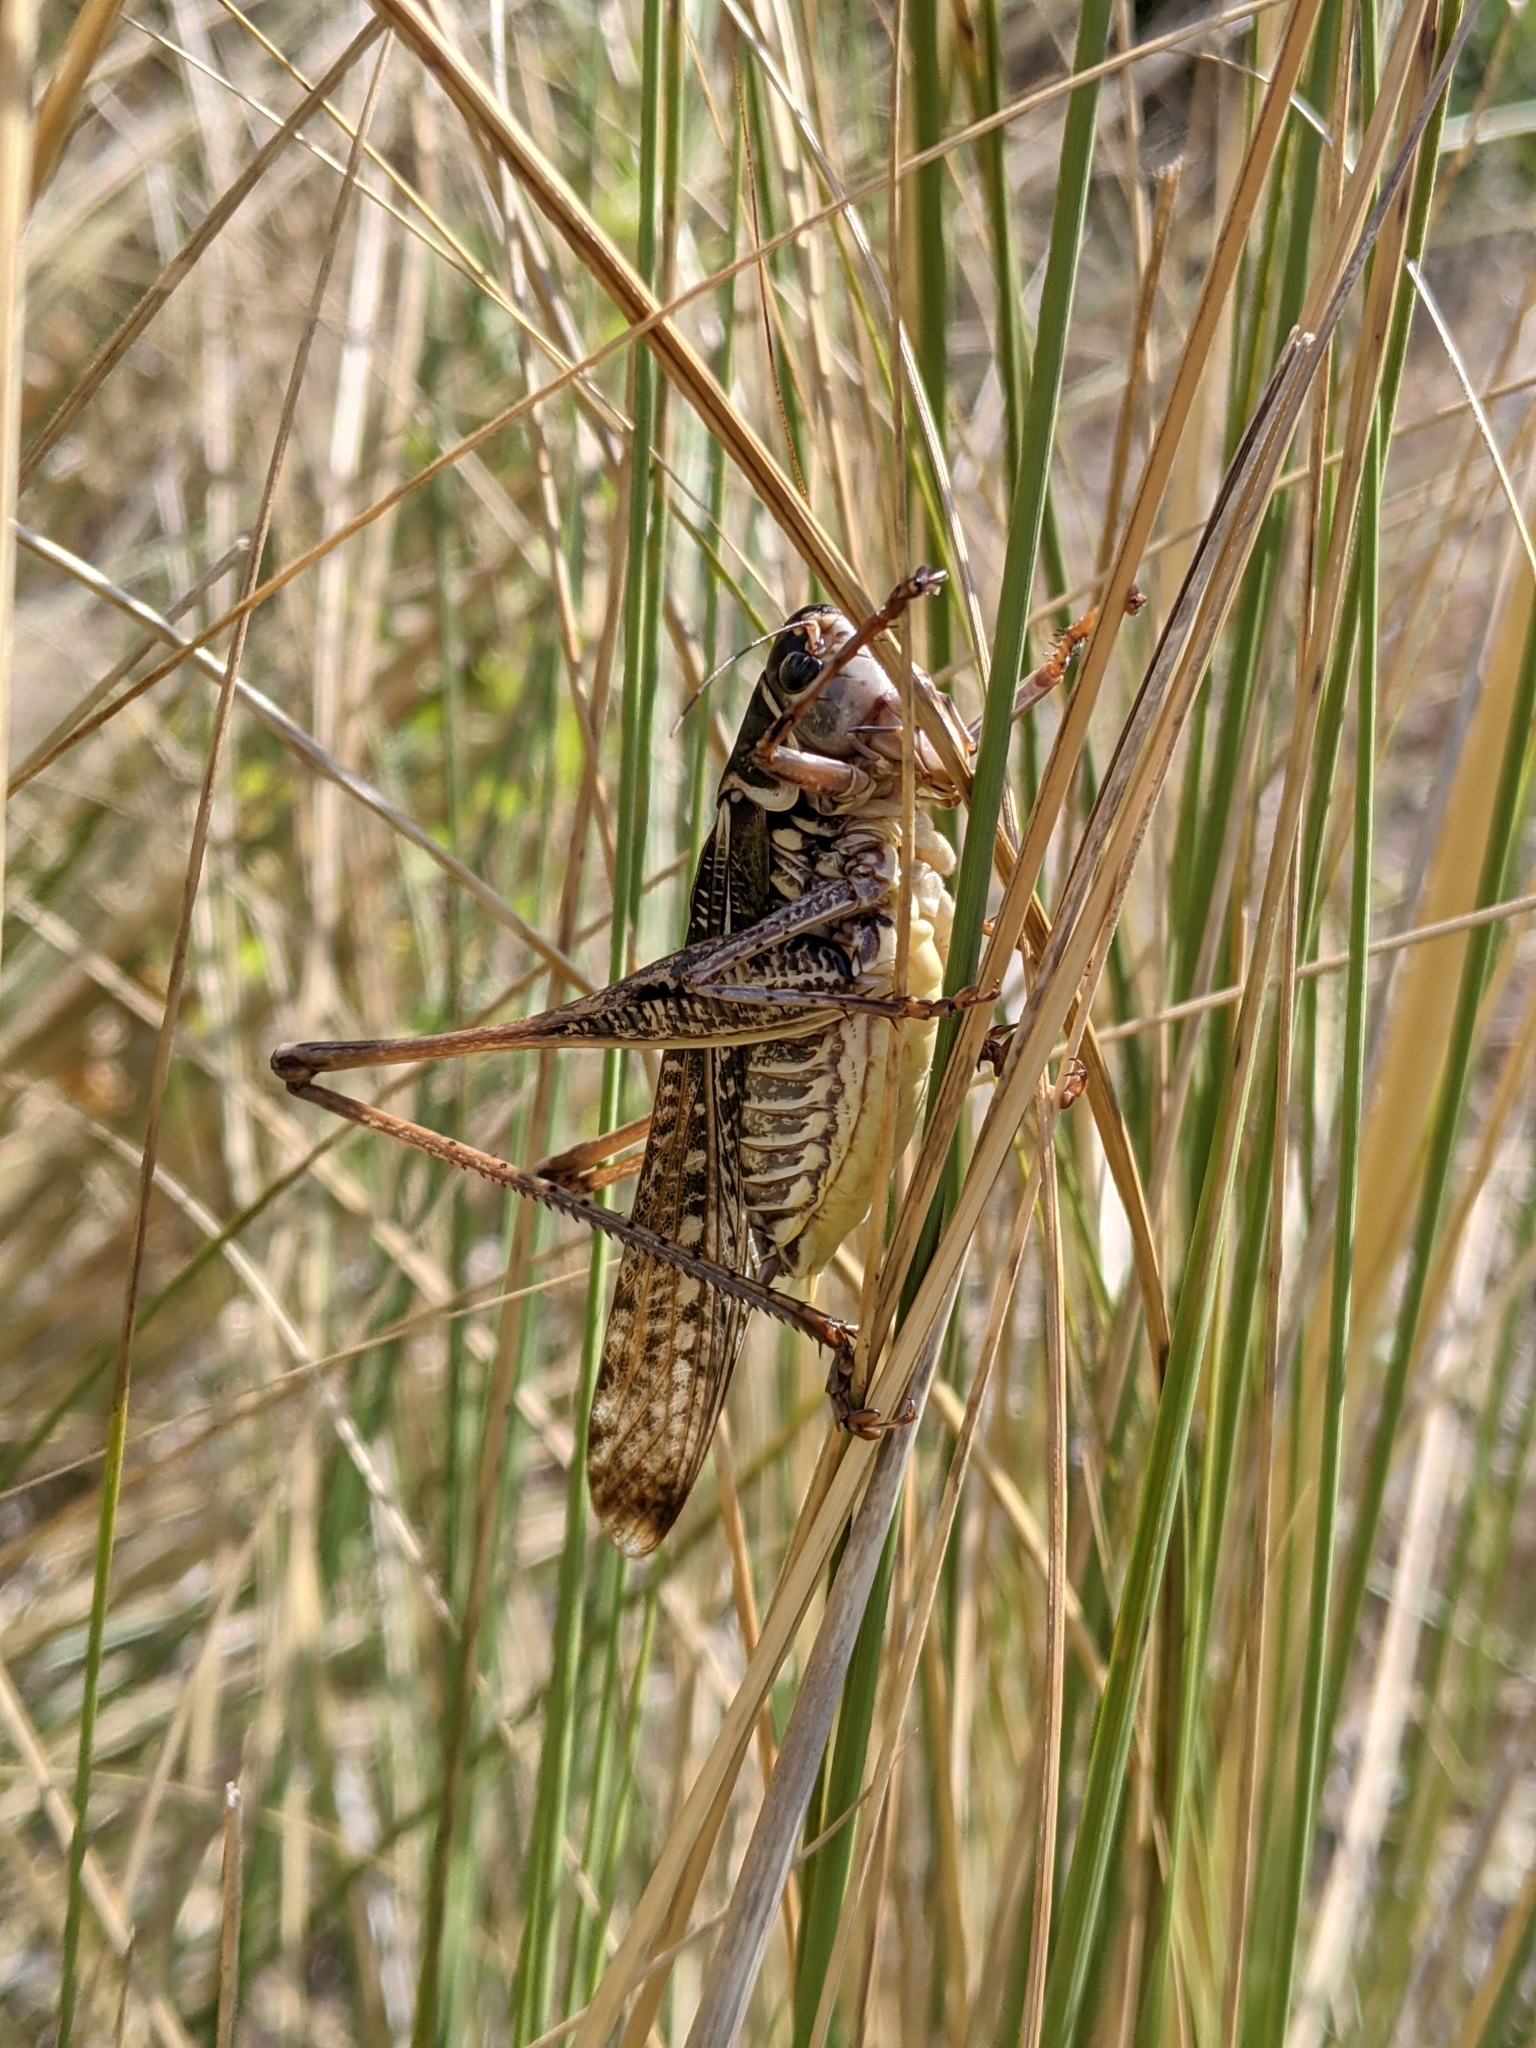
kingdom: Animalia
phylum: Arthropoda
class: Insecta
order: Orthoptera
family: Tettigoniidae
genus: Decticus
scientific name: Decticus albifrons
